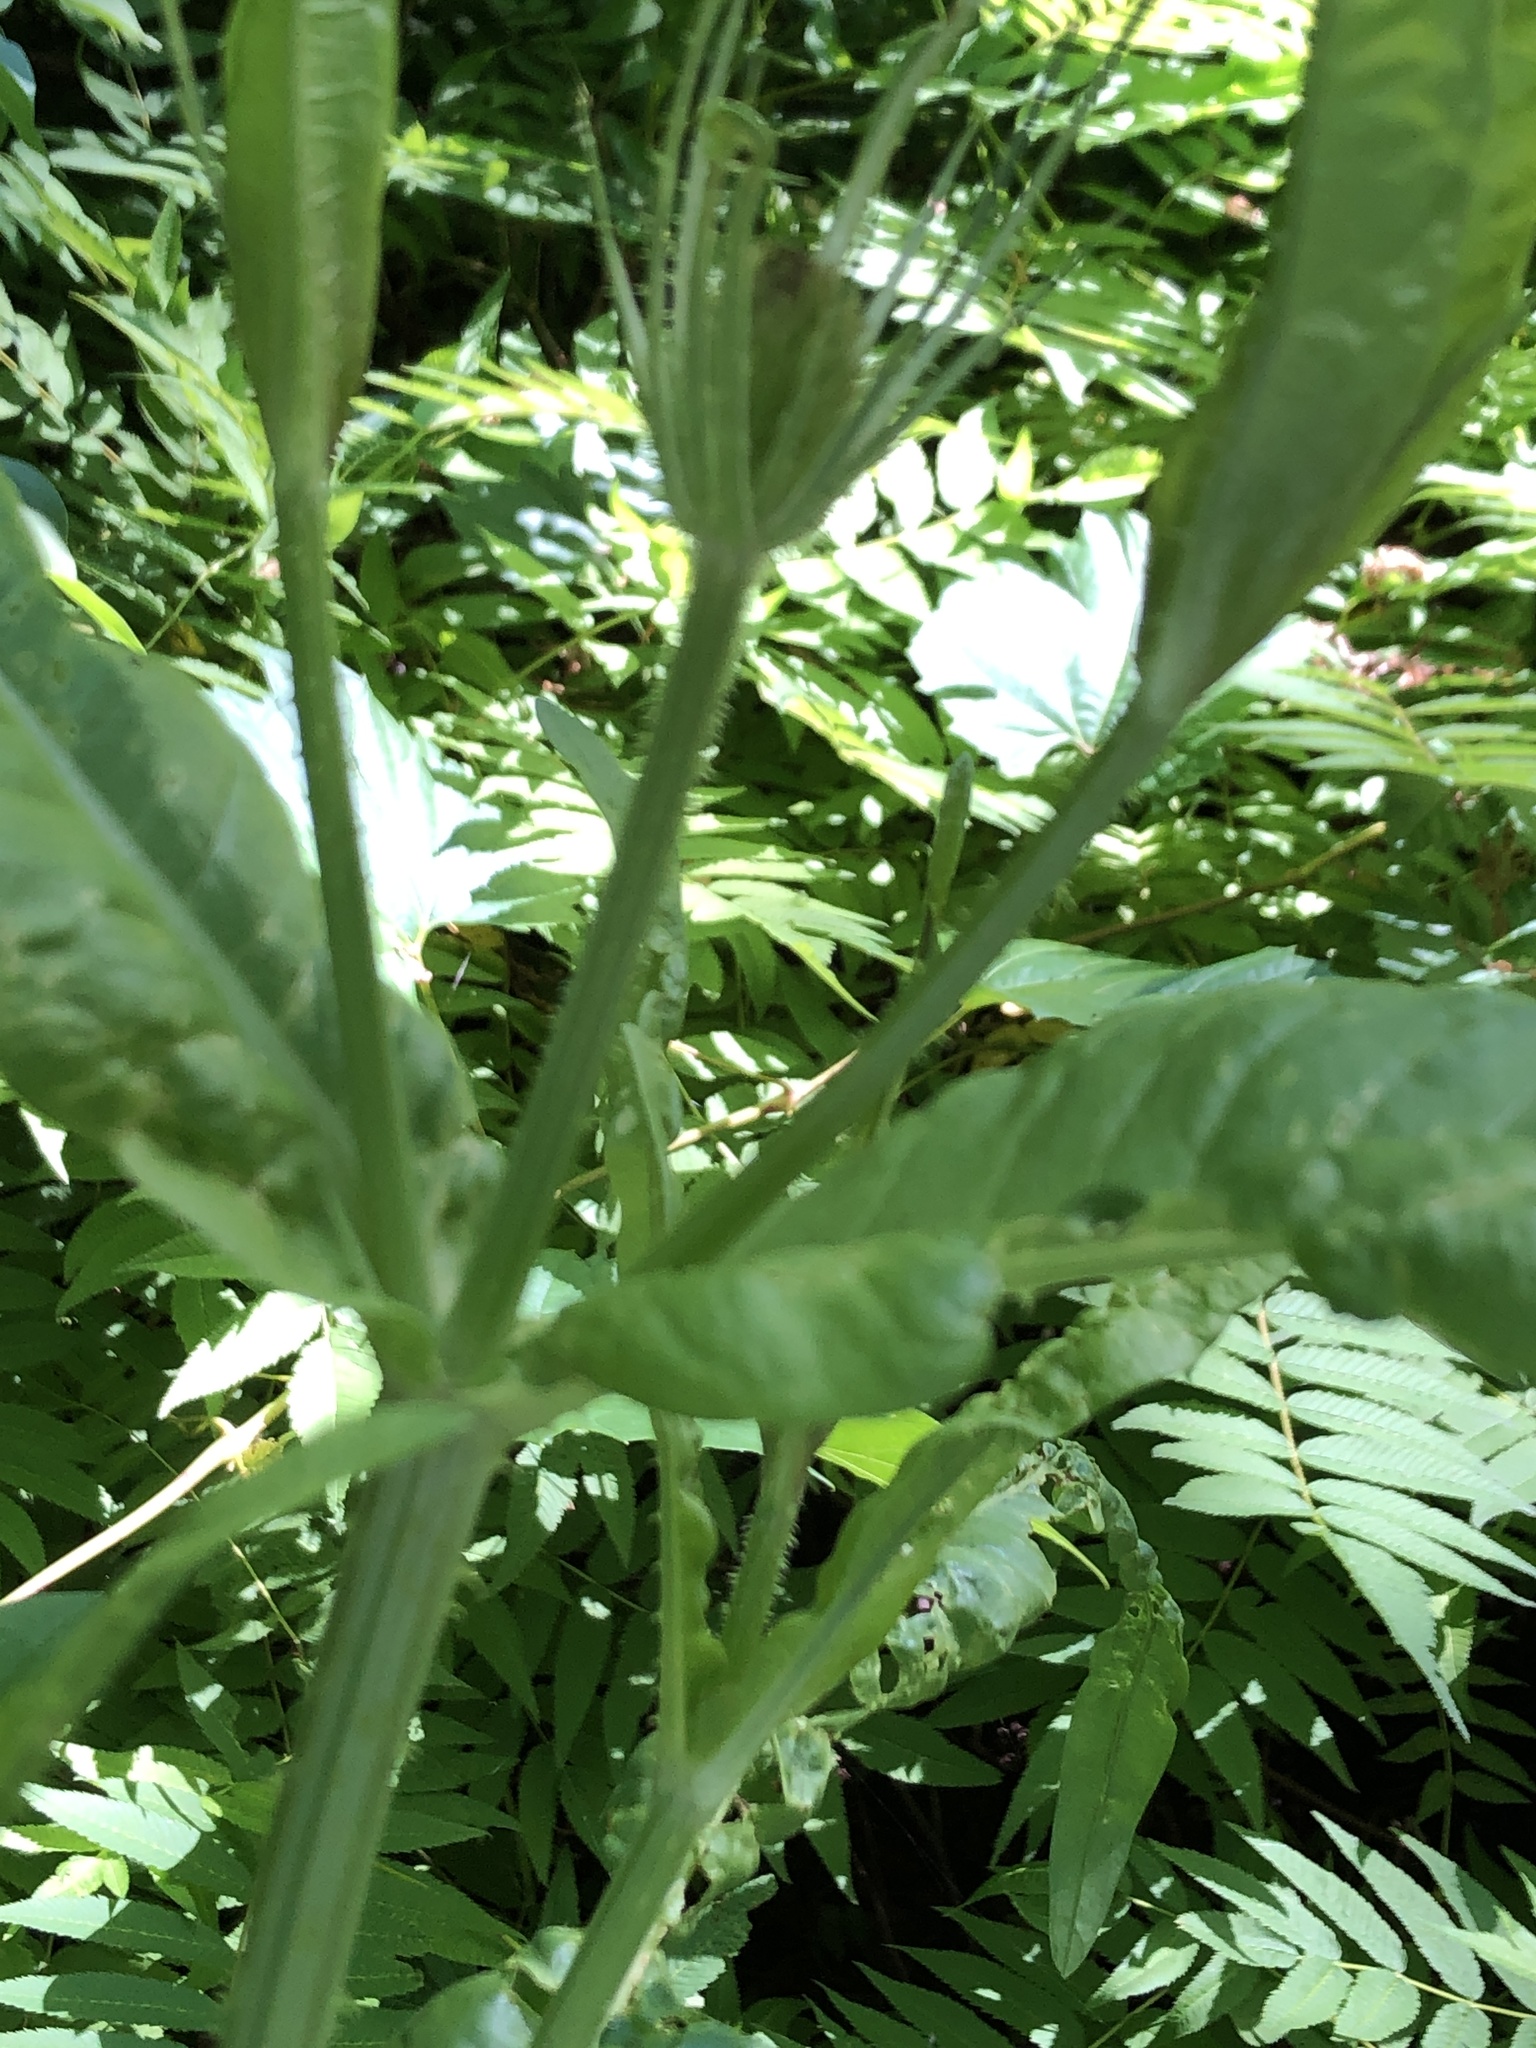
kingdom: Plantae
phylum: Tracheophyta
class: Magnoliopsida
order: Dipsacales
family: Caprifoliaceae
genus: Dipsacus
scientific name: Dipsacus fullonum
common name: Teasel
